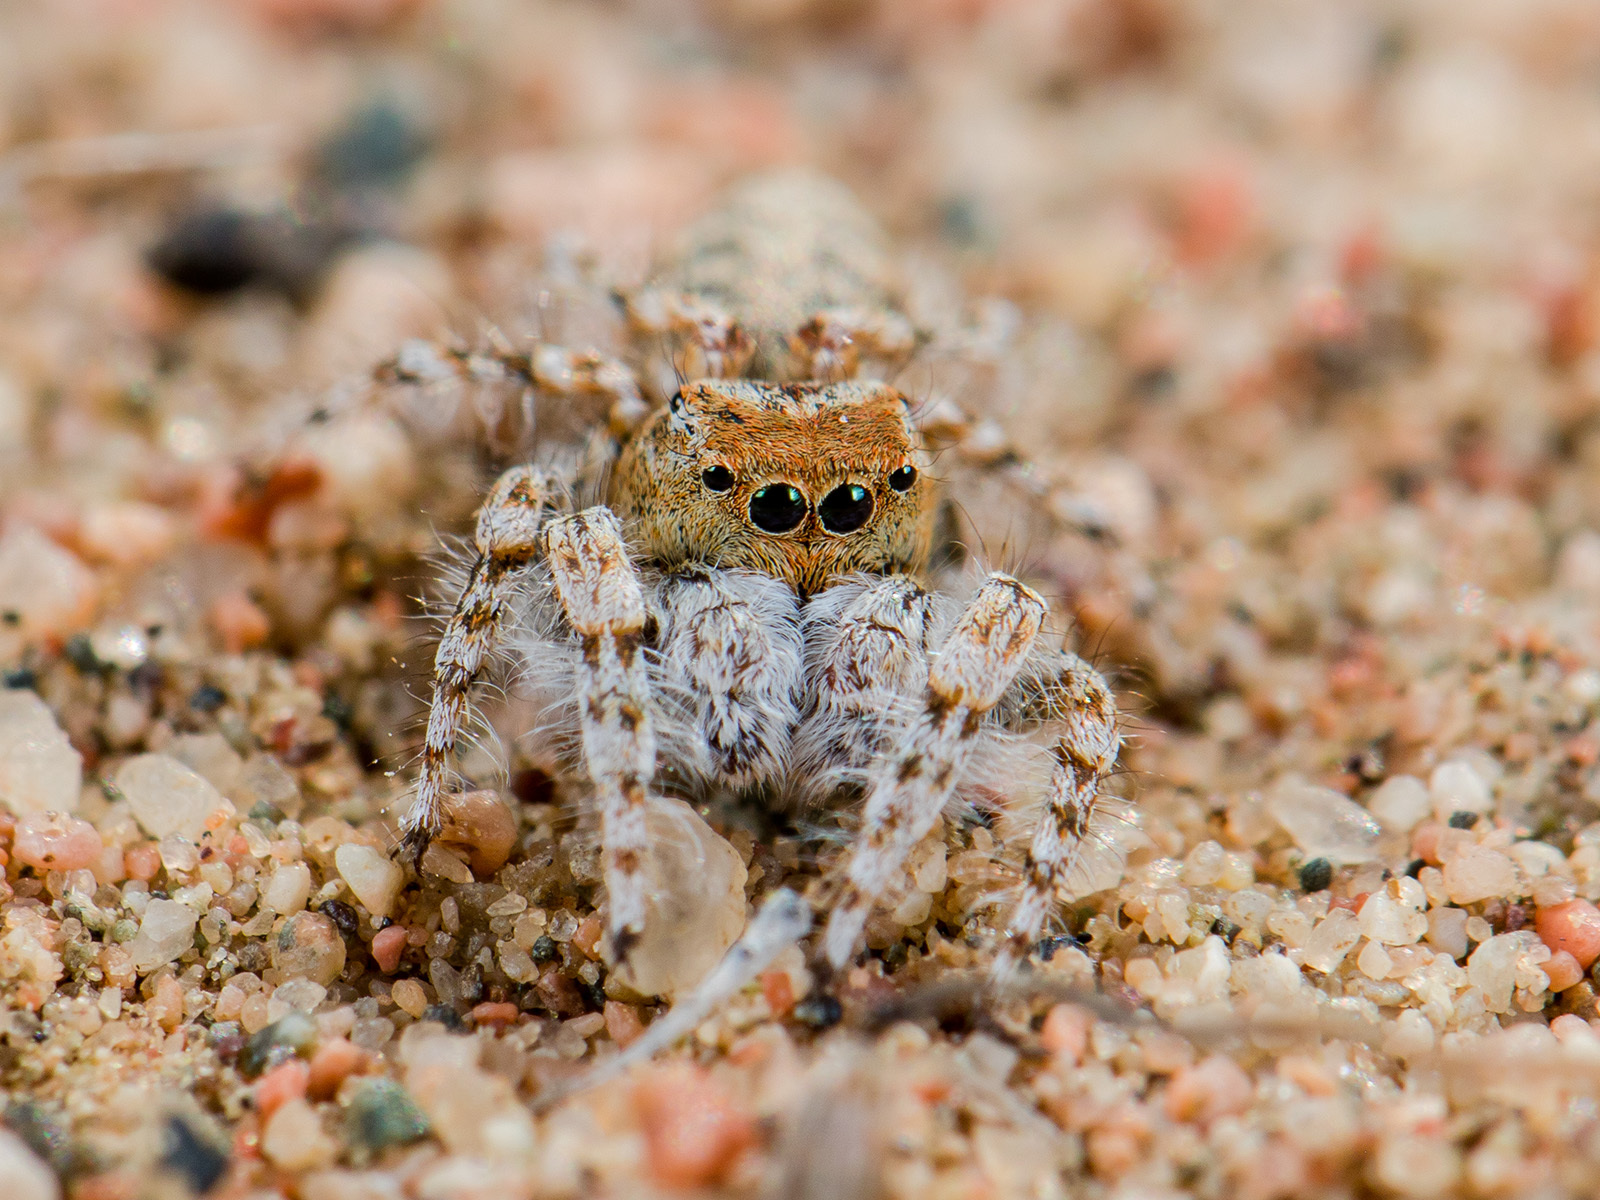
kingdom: Animalia
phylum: Arthropoda
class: Arachnida
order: Araneae
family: Salticidae
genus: Yllenus
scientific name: Yllenus uiguricus
